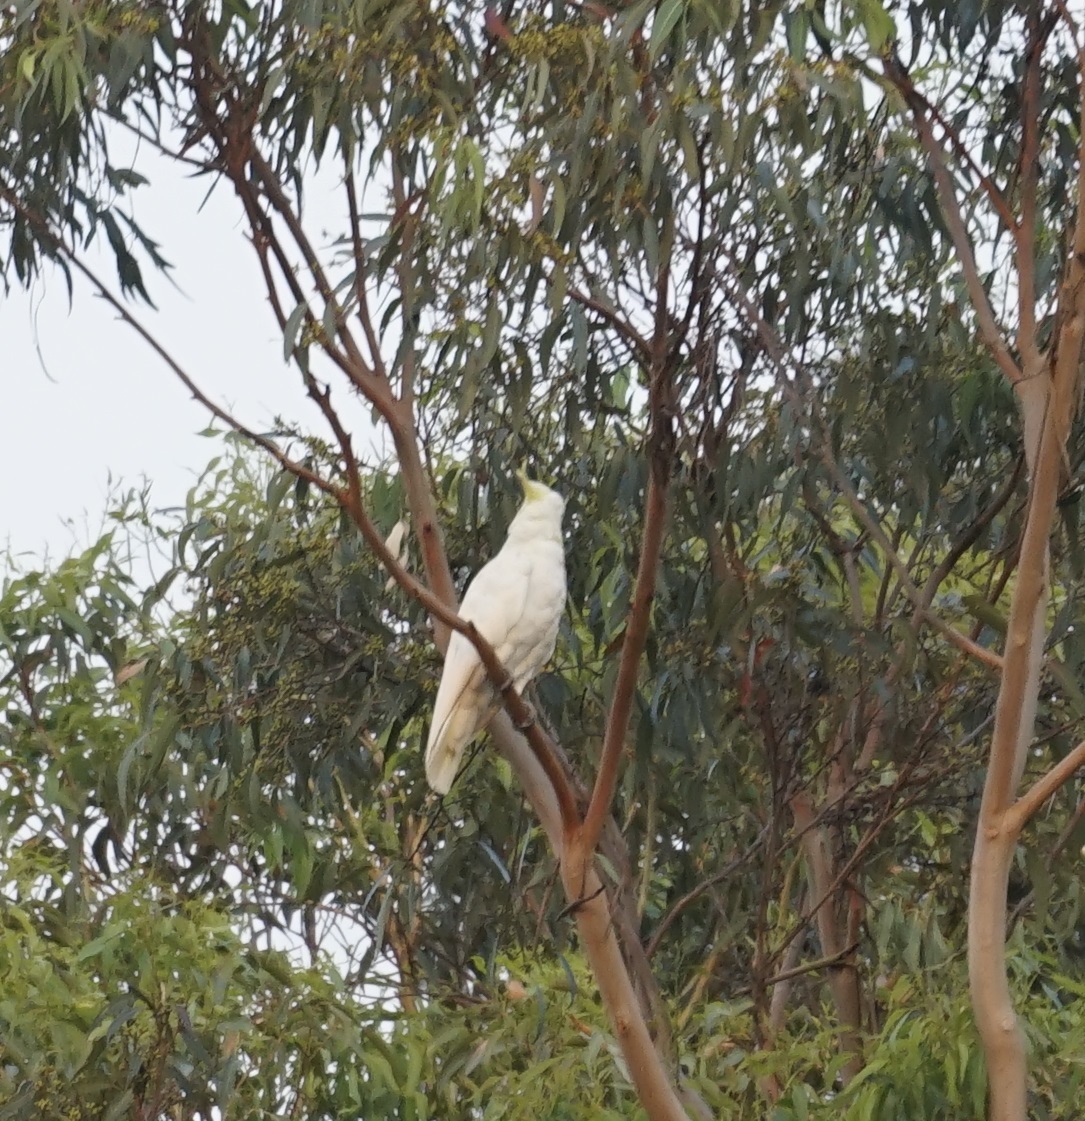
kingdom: Animalia
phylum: Chordata
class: Aves
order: Psittaciformes
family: Psittacidae
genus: Cacatua
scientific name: Cacatua galerita
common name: Sulphur-crested cockatoo
